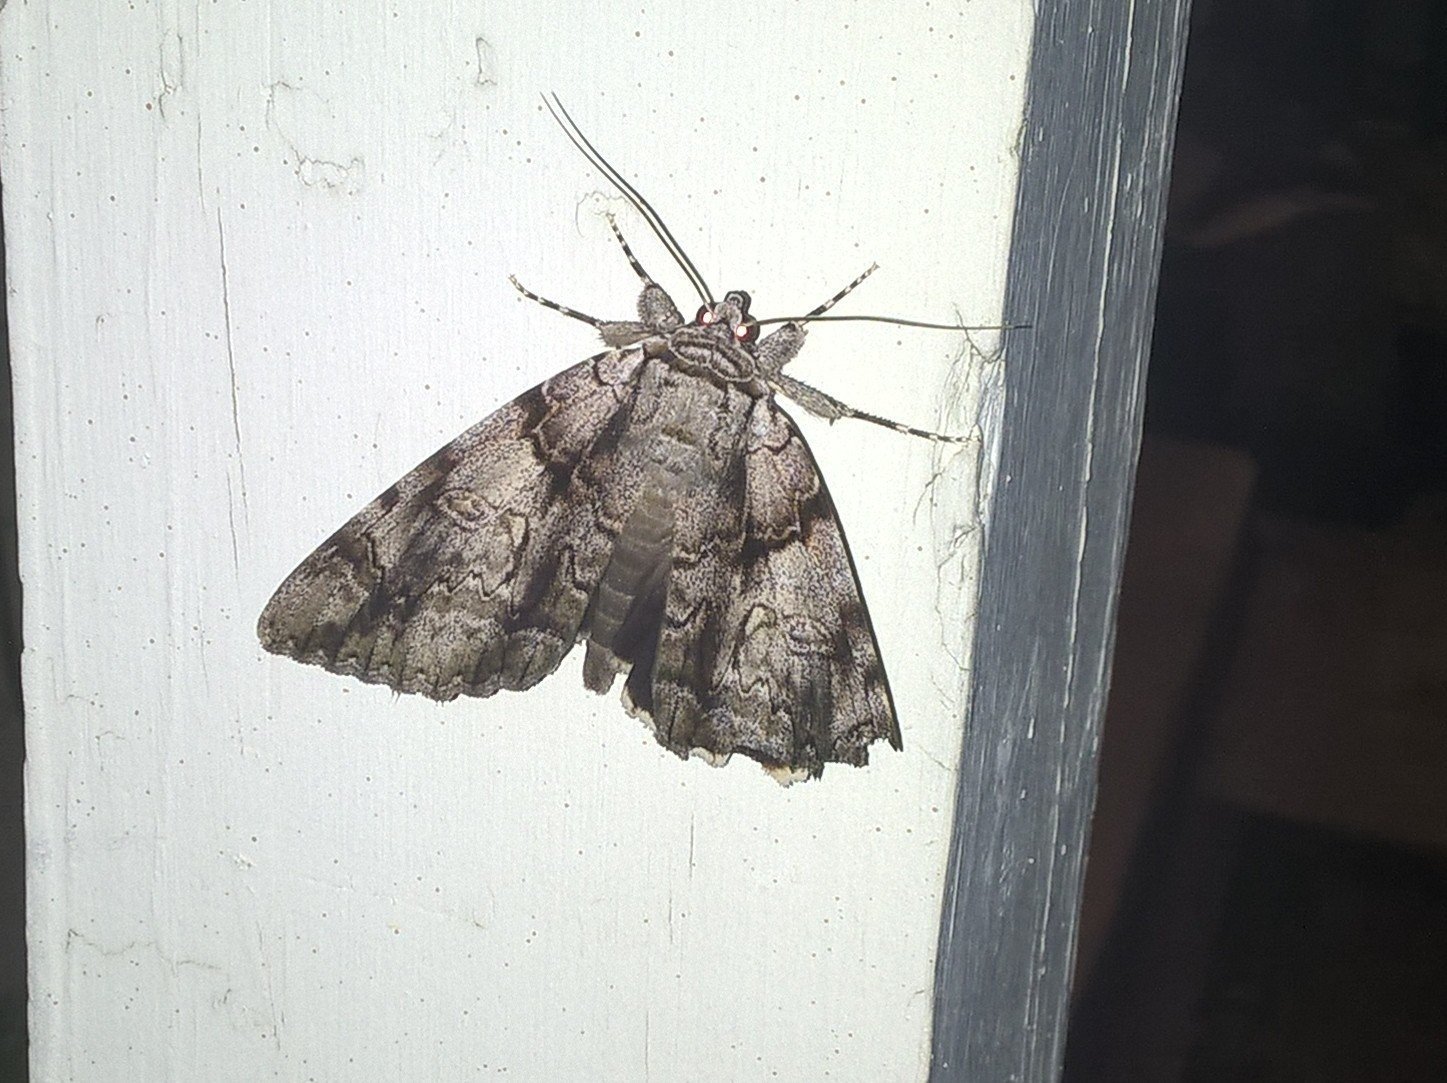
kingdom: Animalia
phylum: Arthropoda
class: Insecta
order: Lepidoptera
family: Erebidae
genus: Catocala
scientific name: Catocala vidua
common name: The widow
